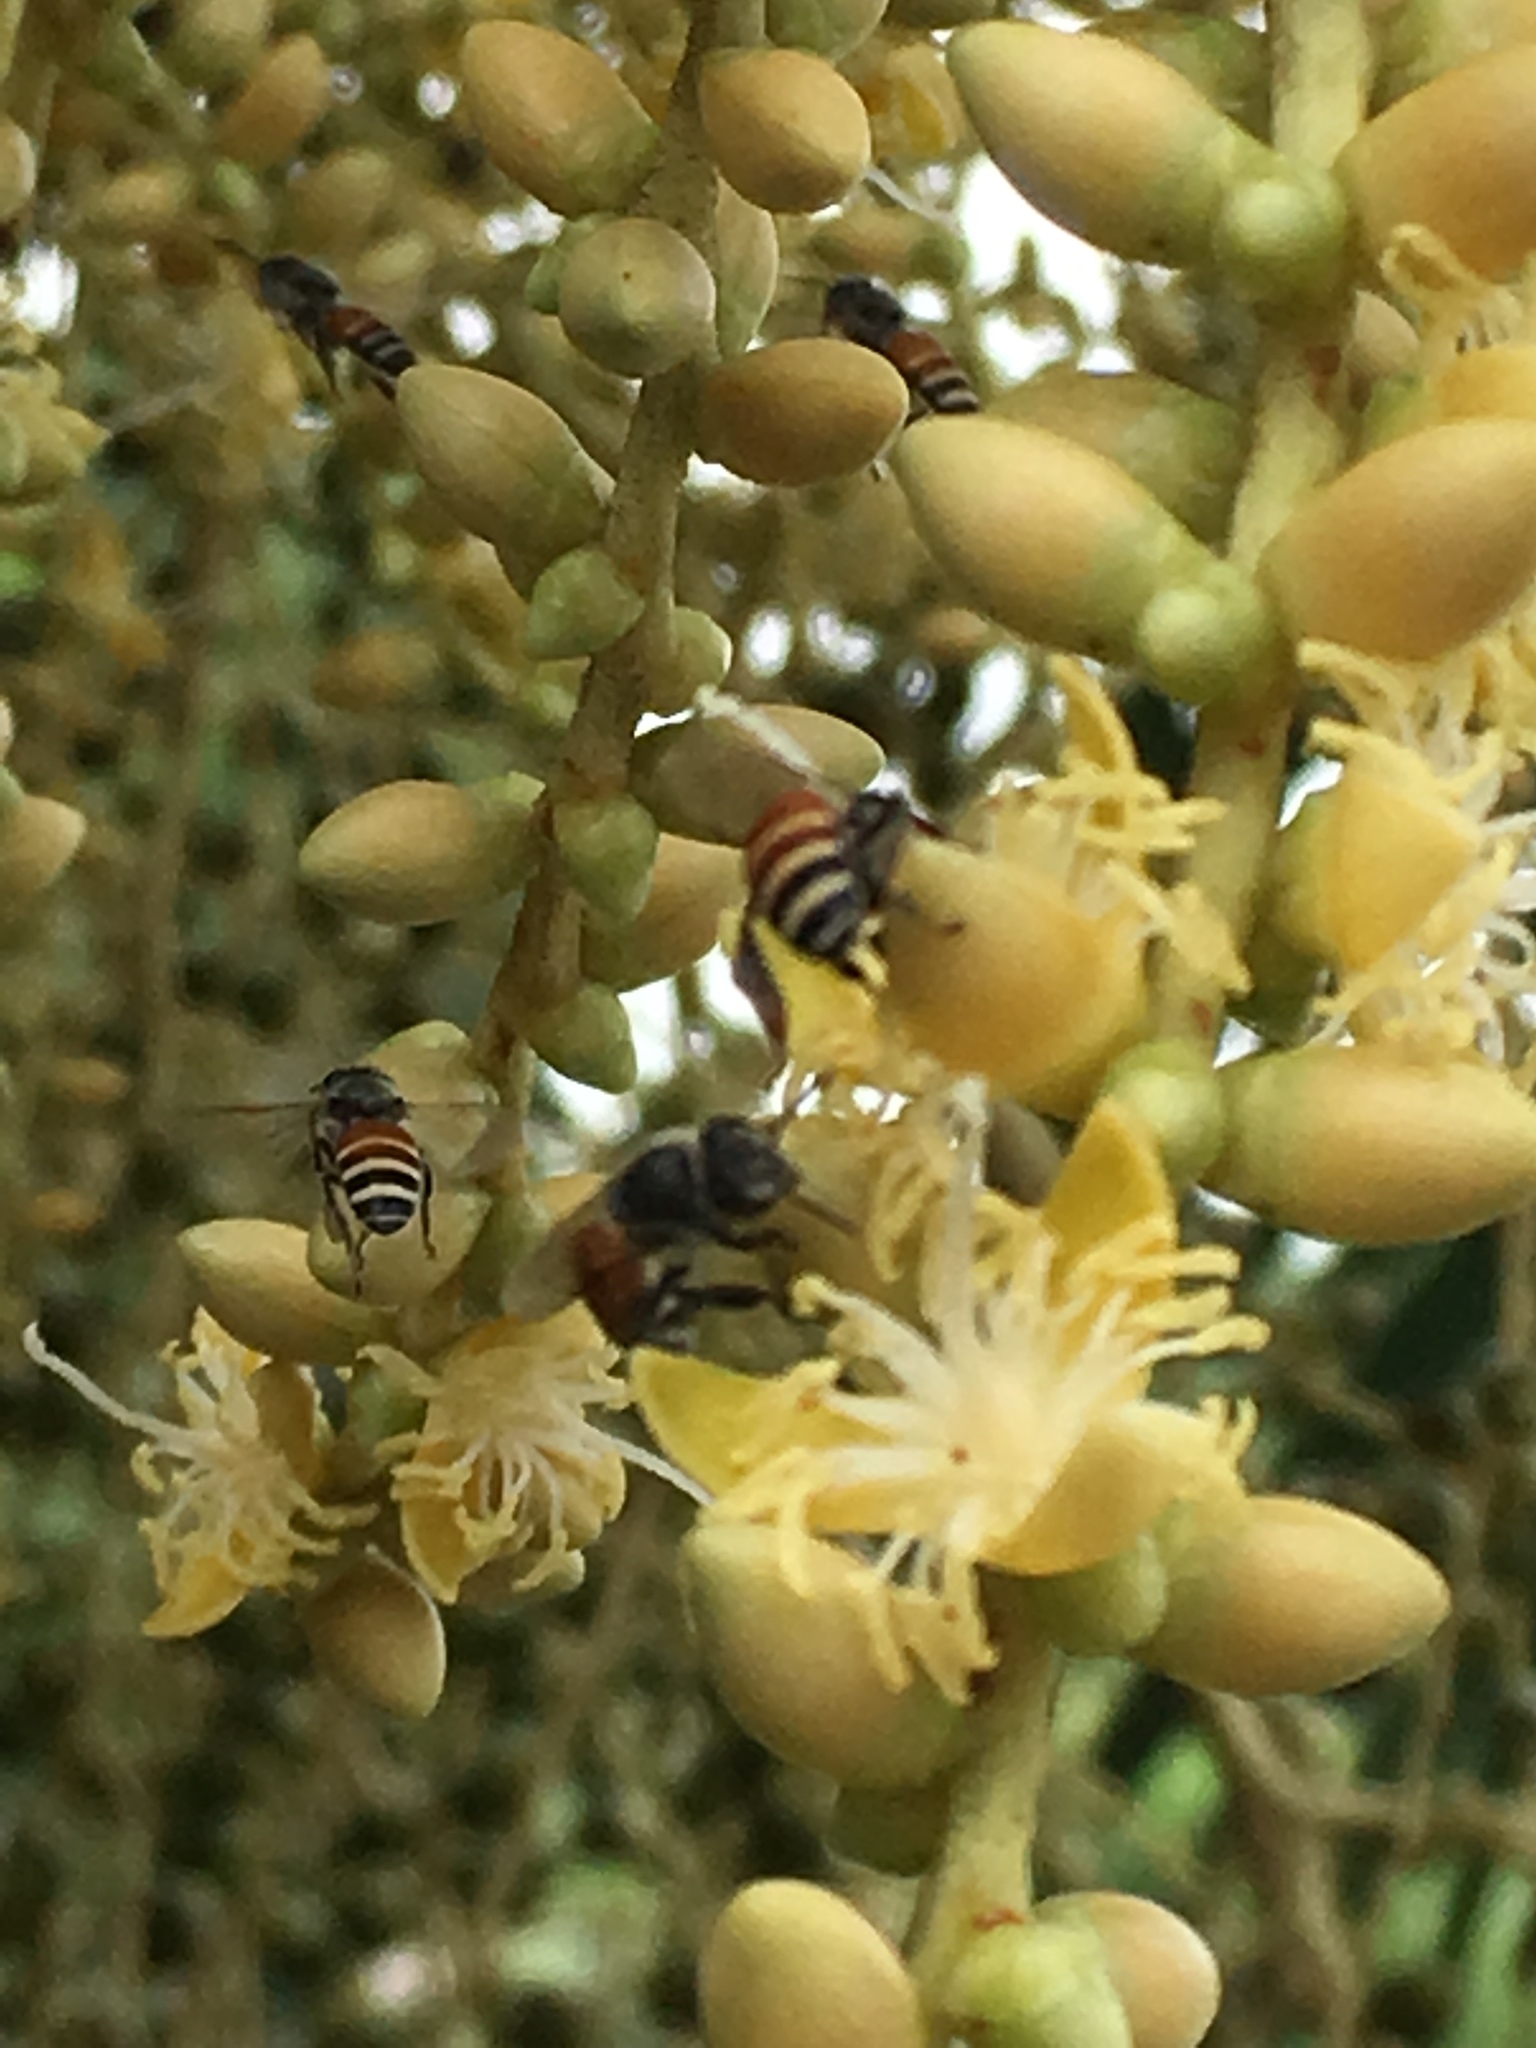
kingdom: Animalia
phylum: Arthropoda
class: Insecta
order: Hymenoptera
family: Apidae
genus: Apis
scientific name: Apis florea
